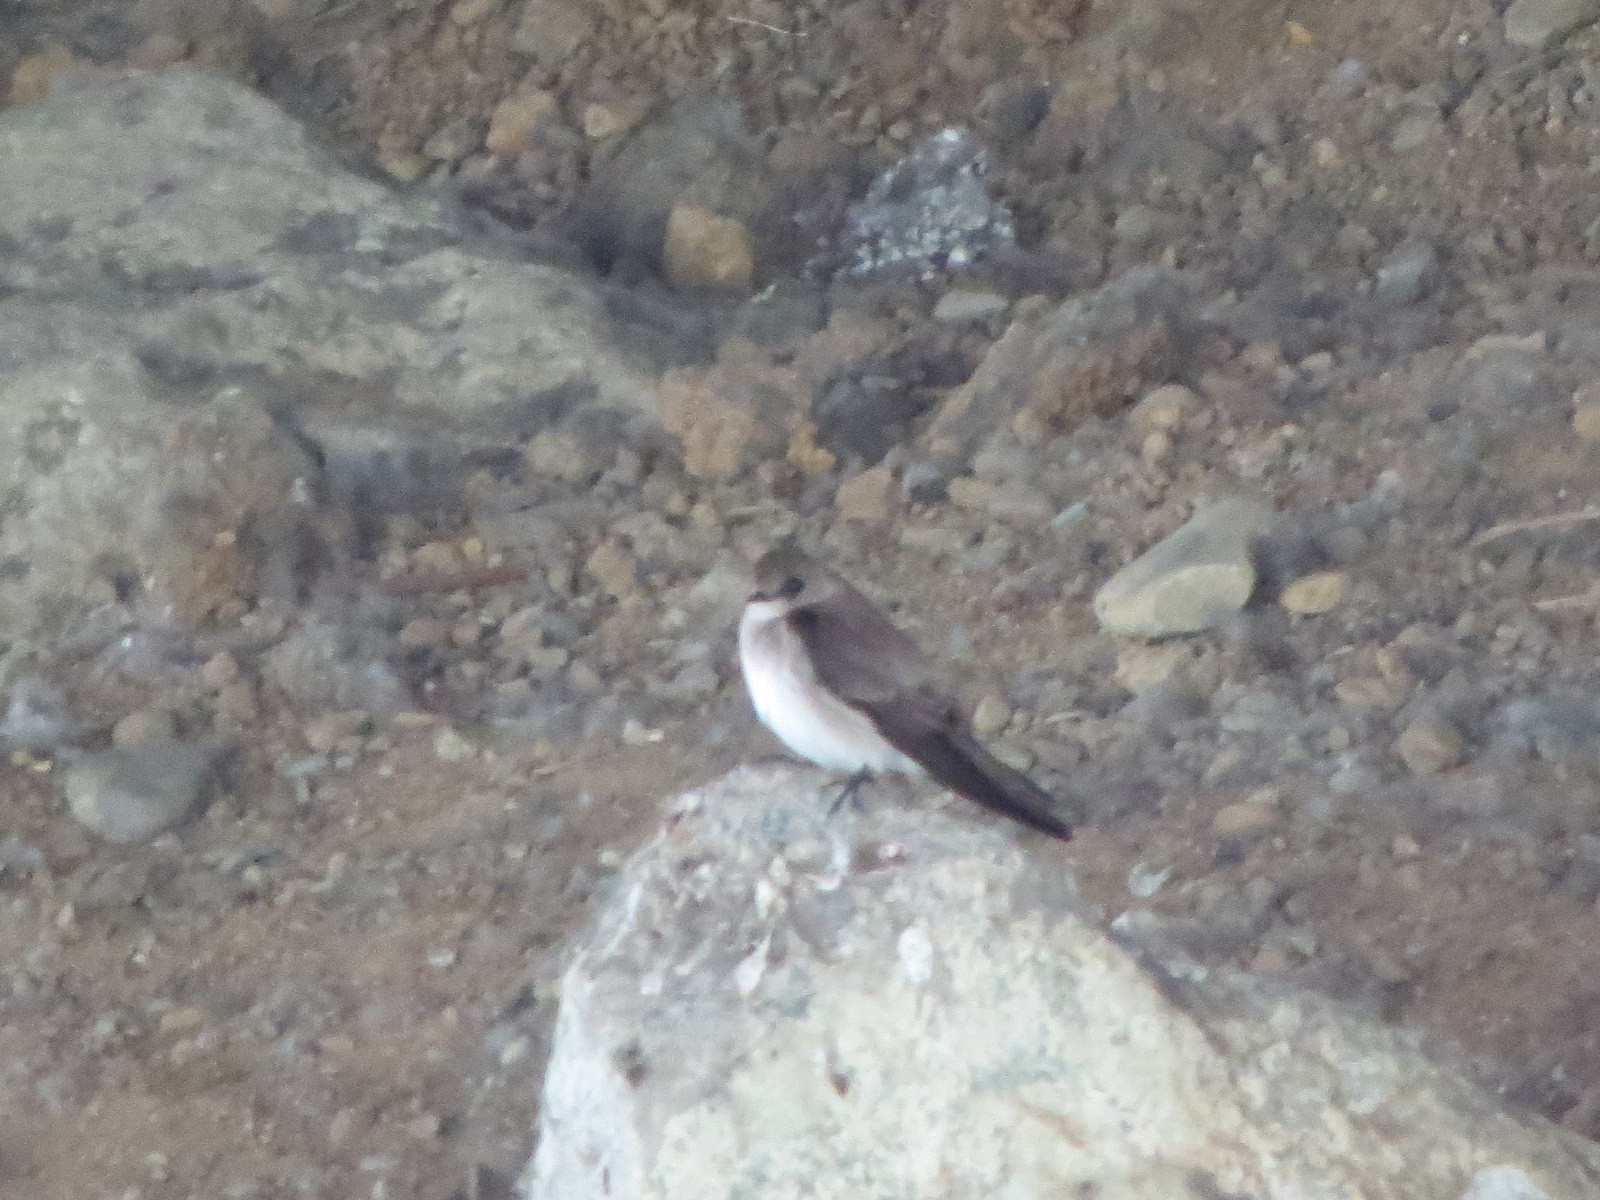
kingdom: Animalia
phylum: Chordata
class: Aves
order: Passeriformes
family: Hirundinidae
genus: Stelgidopteryx
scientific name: Stelgidopteryx serripennis
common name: Northern rough-winged swallow
